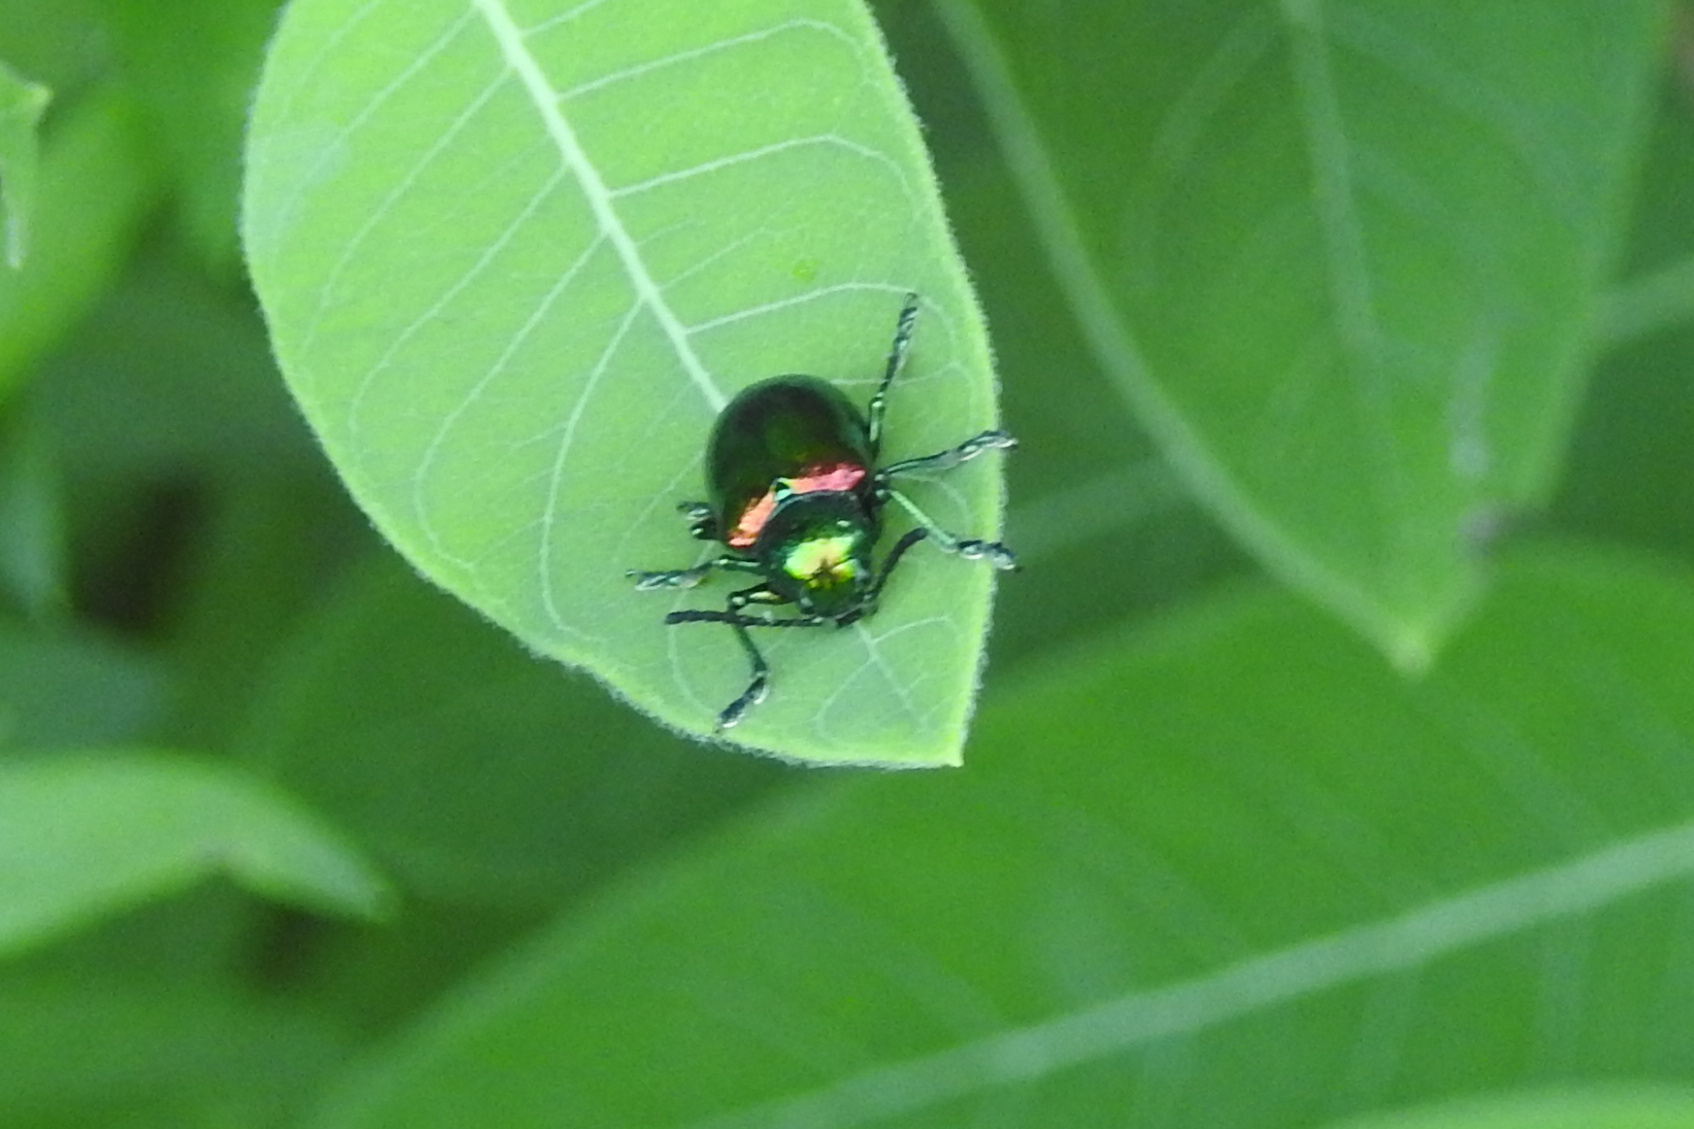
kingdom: Animalia
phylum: Arthropoda
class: Insecta
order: Coleoptera
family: Chrysomelidae
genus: Chrysochus
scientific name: Chrysochus auratus
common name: Dogbane leaf beetle
